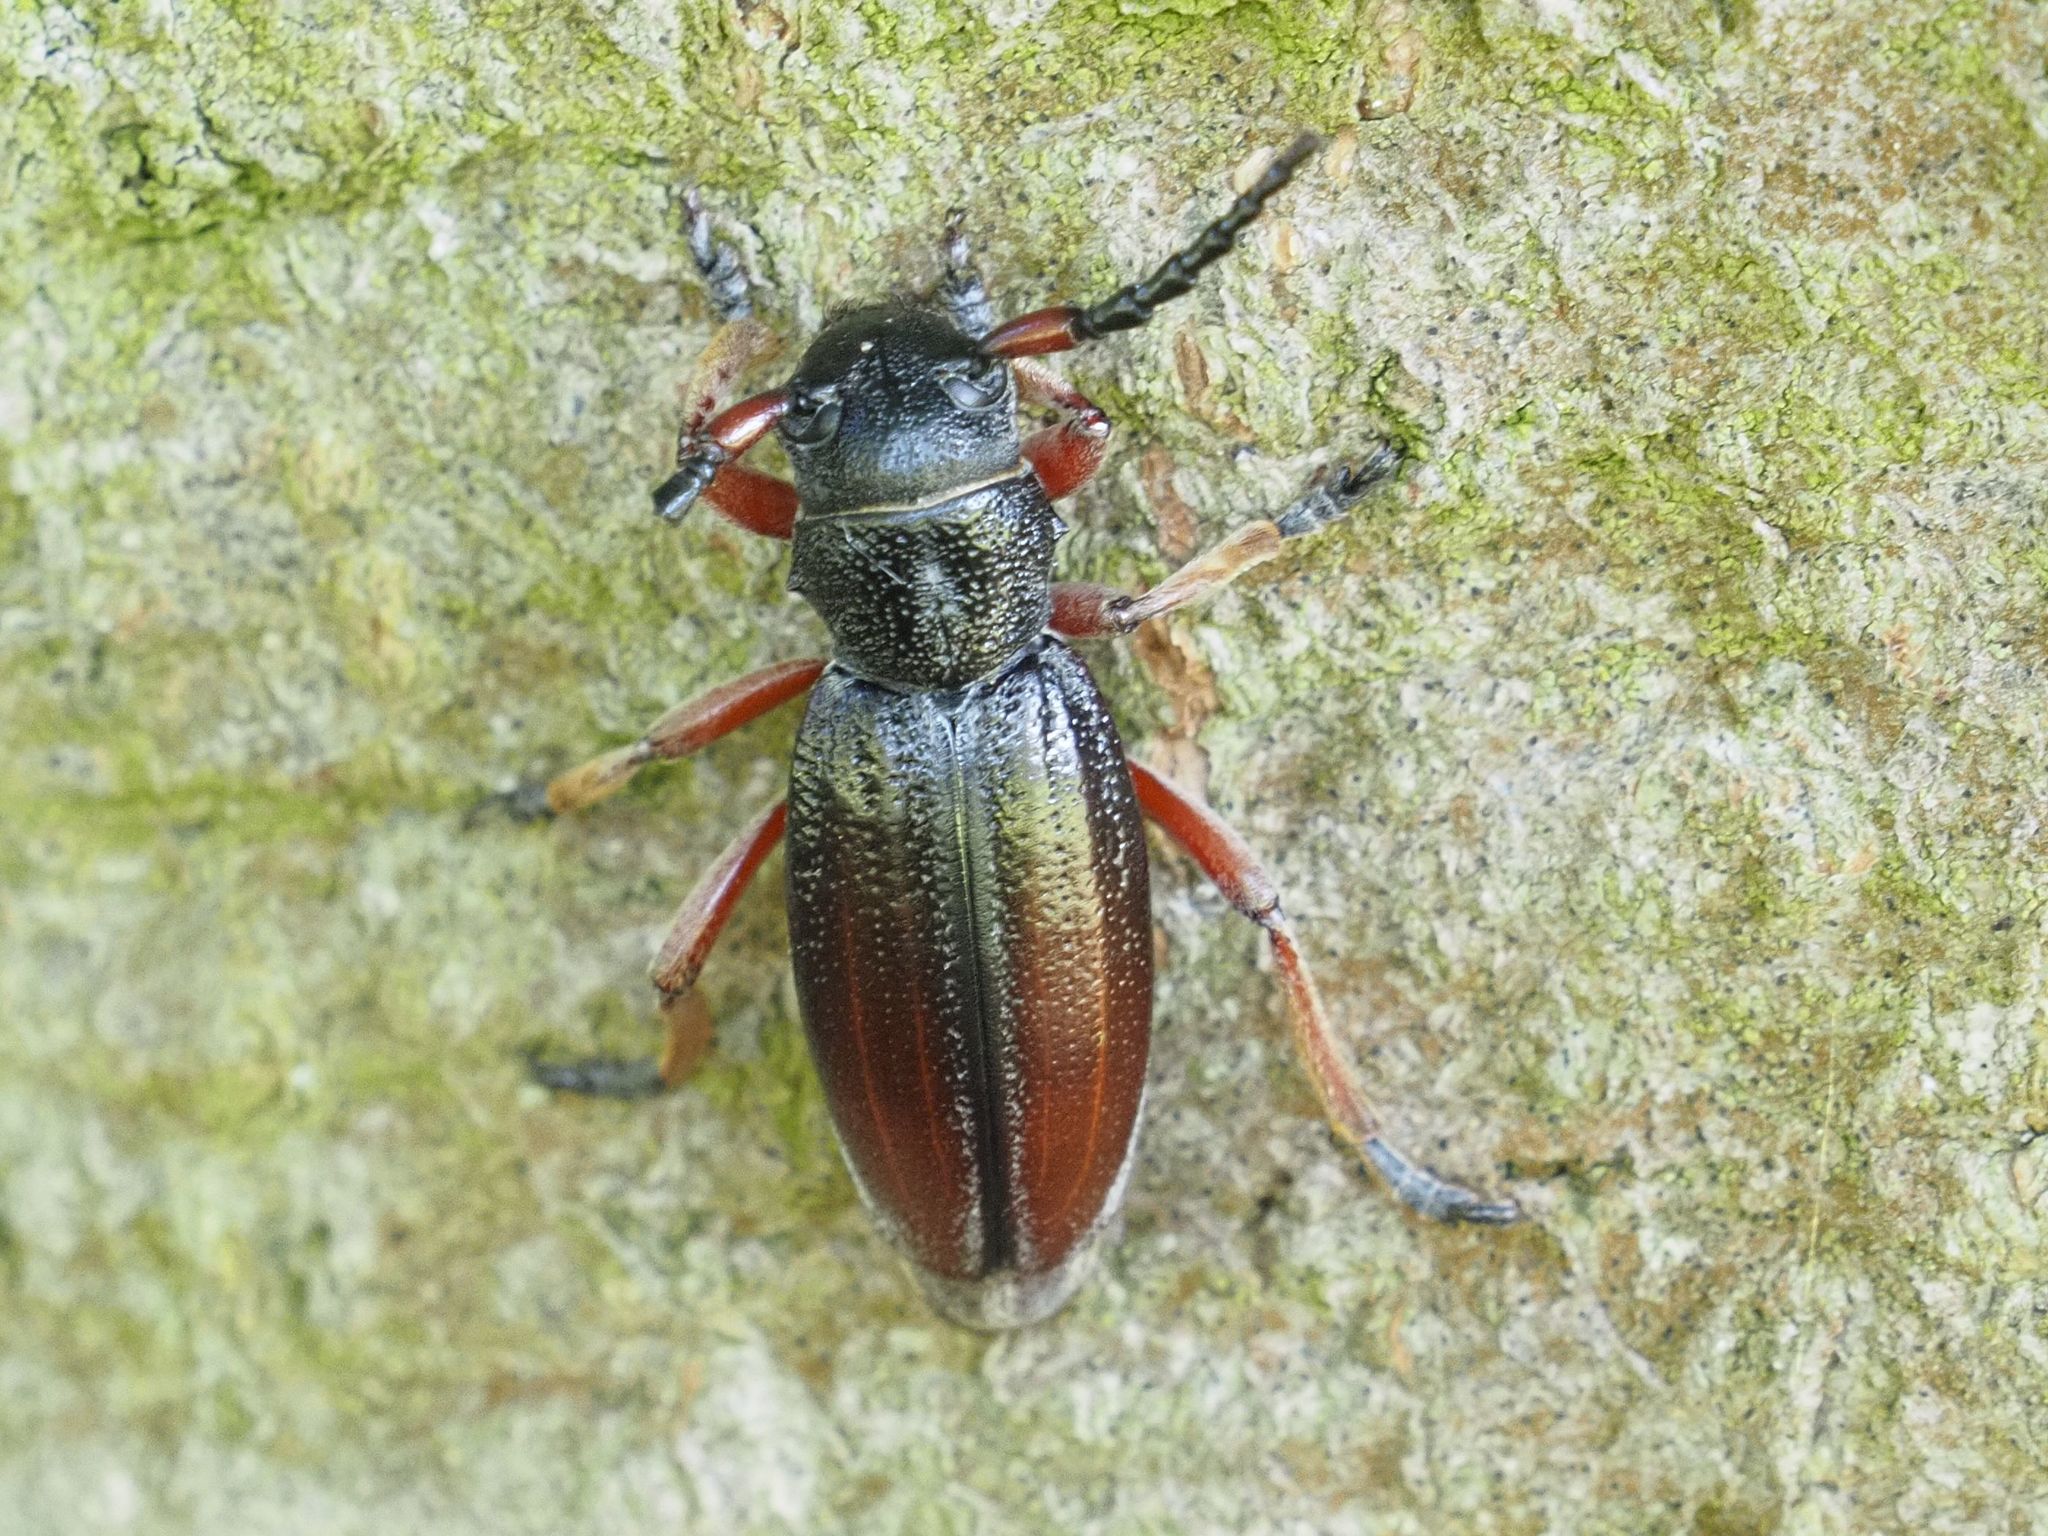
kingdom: Animalia
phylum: Arthropoda
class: Insecta
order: Coleoptera
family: Cerambycidae
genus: Dorcadion
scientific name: Dorcadion fulvum
